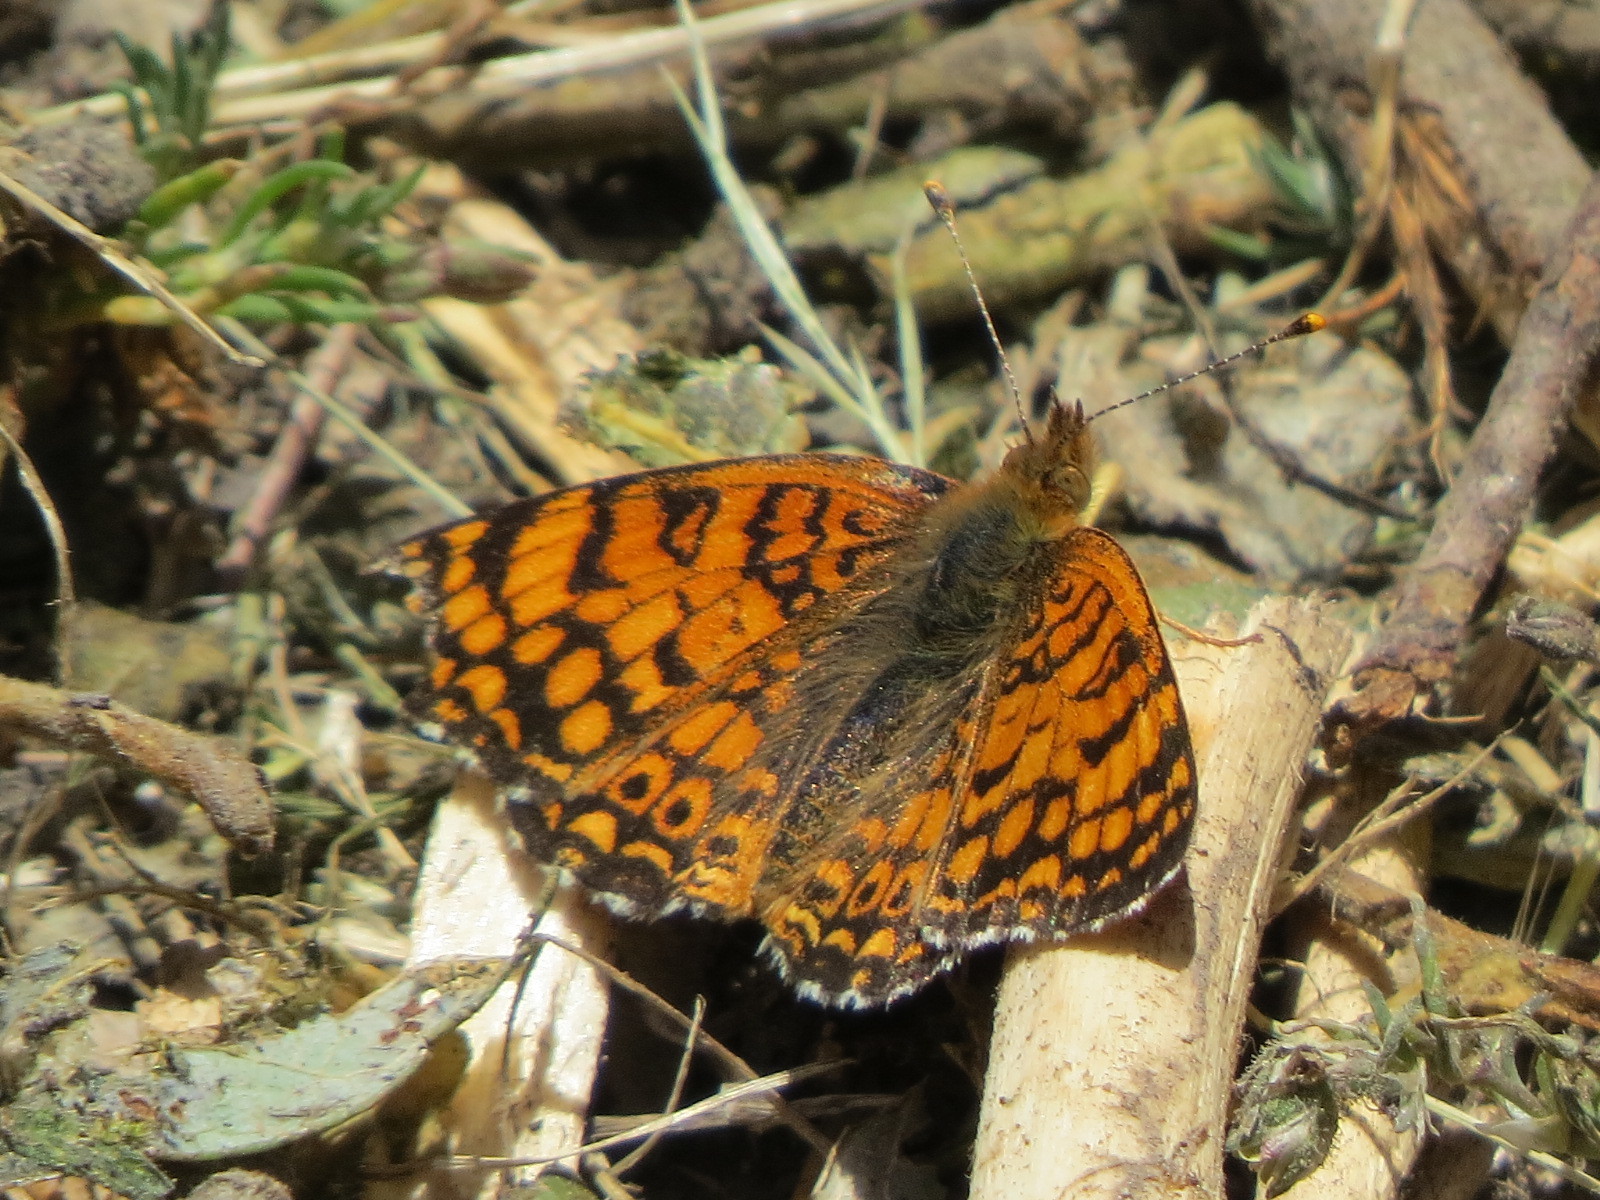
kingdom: Animalia
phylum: Arthropoda
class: Insecta
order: Lepidoptera
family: Nymphalidae
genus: Eresia
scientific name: Eresia aveyrona
